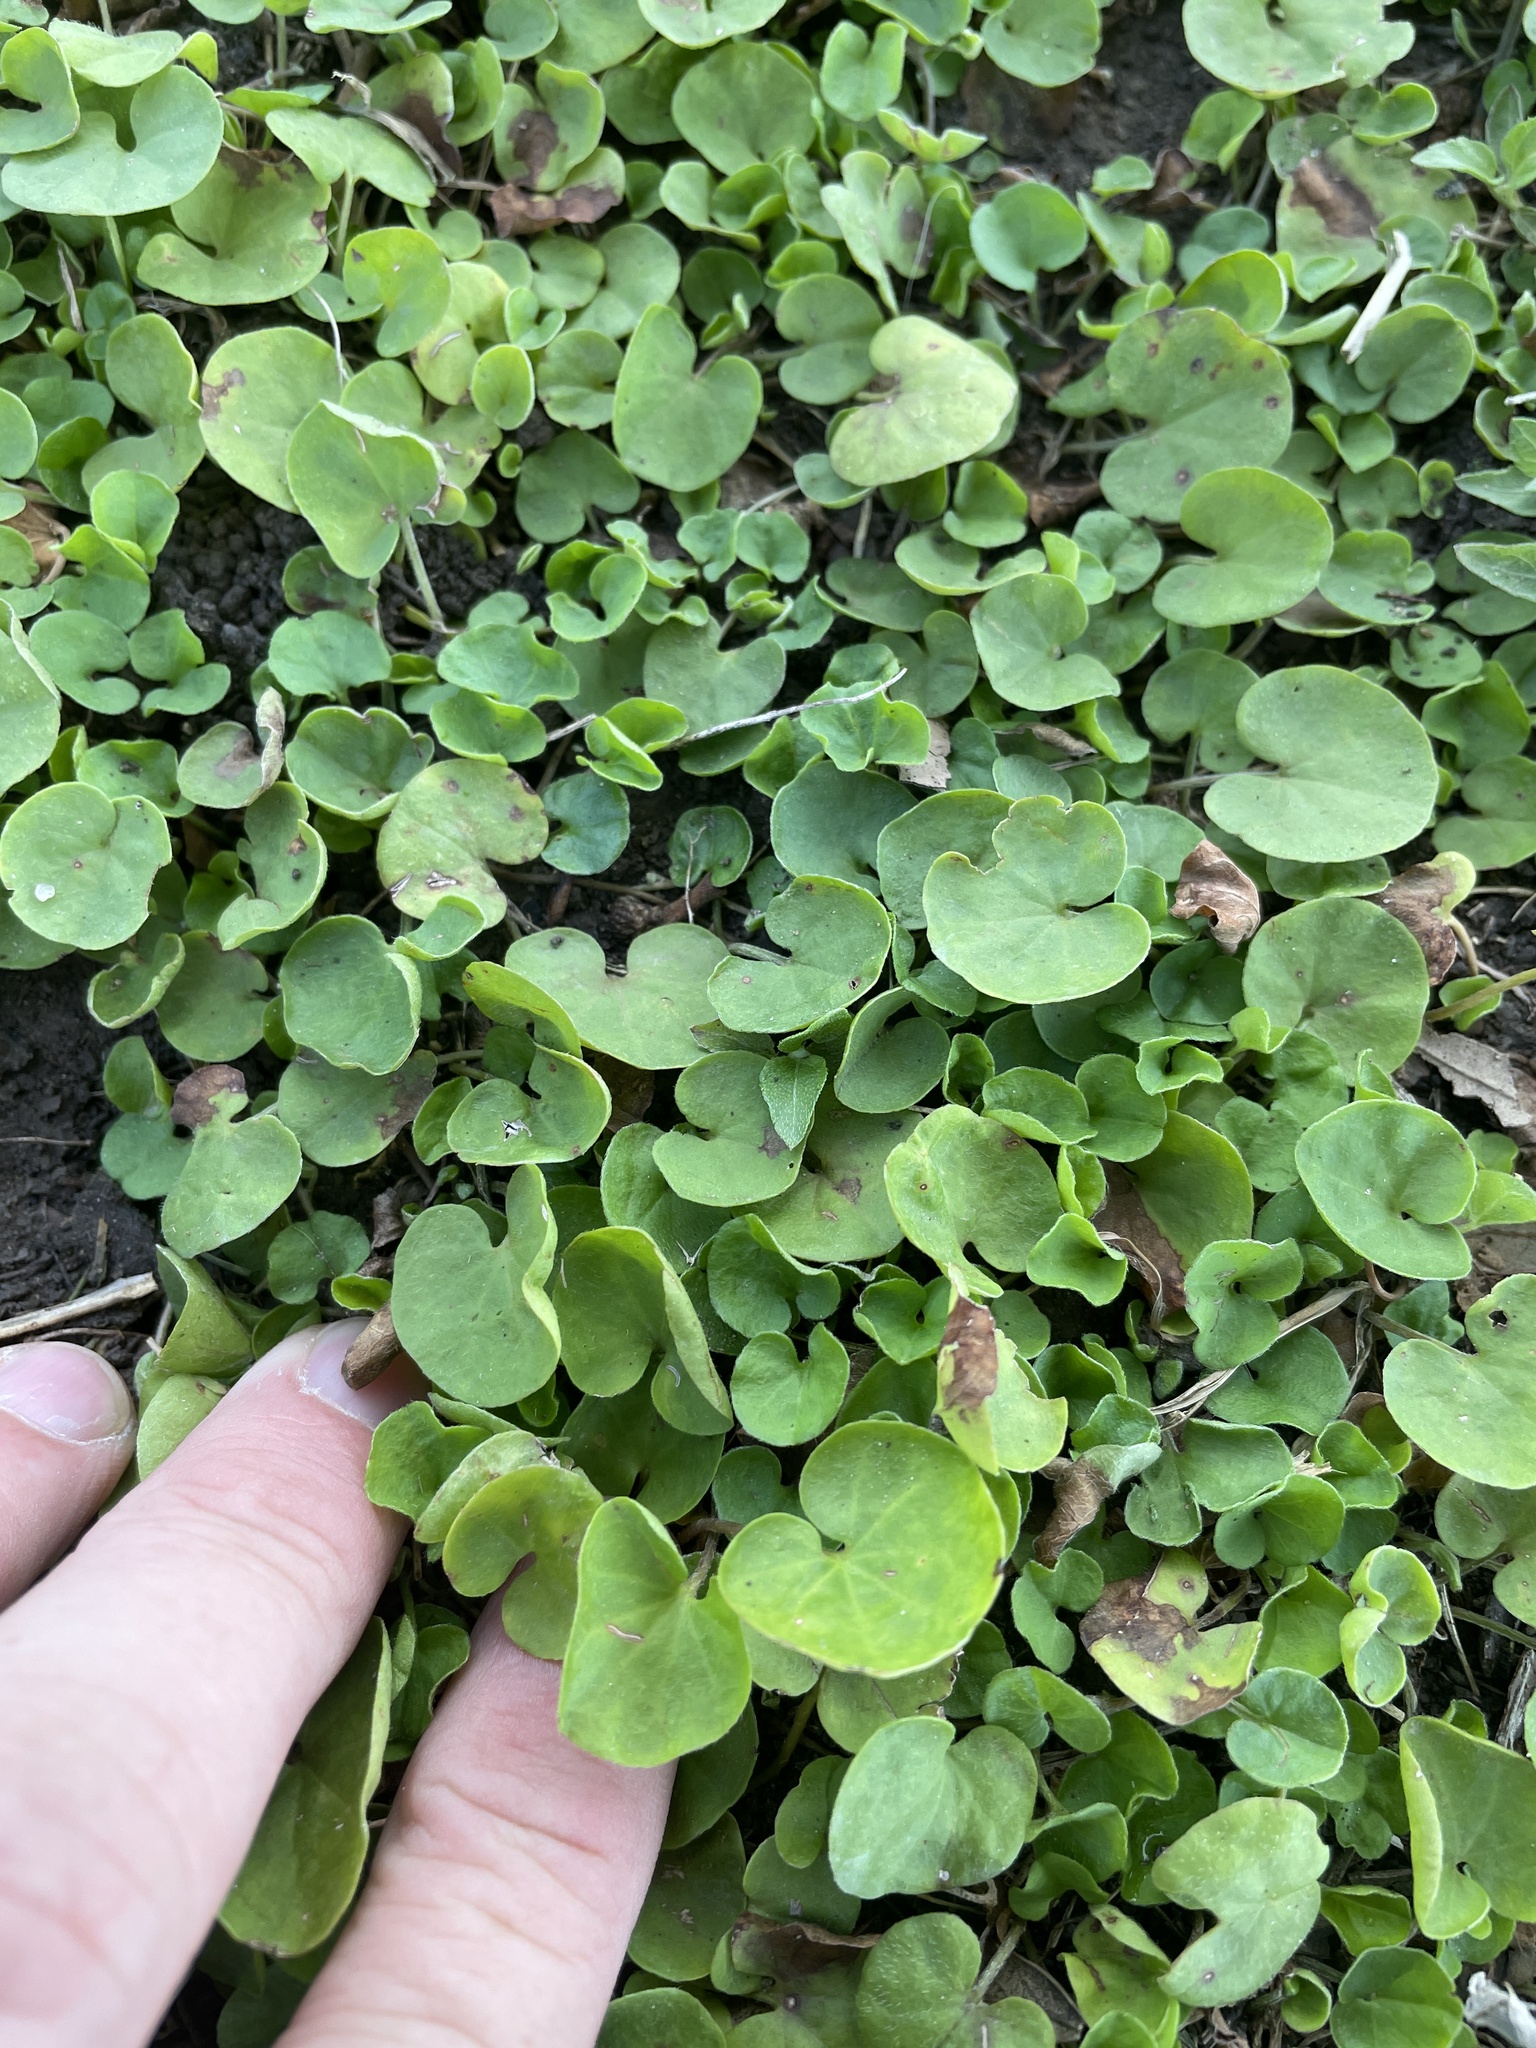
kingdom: Plantae
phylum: Tracheophyta
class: Magnoliopsida
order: Solanales
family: Convolvulaceae
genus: Dichondra
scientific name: Dichondra carolinensis
